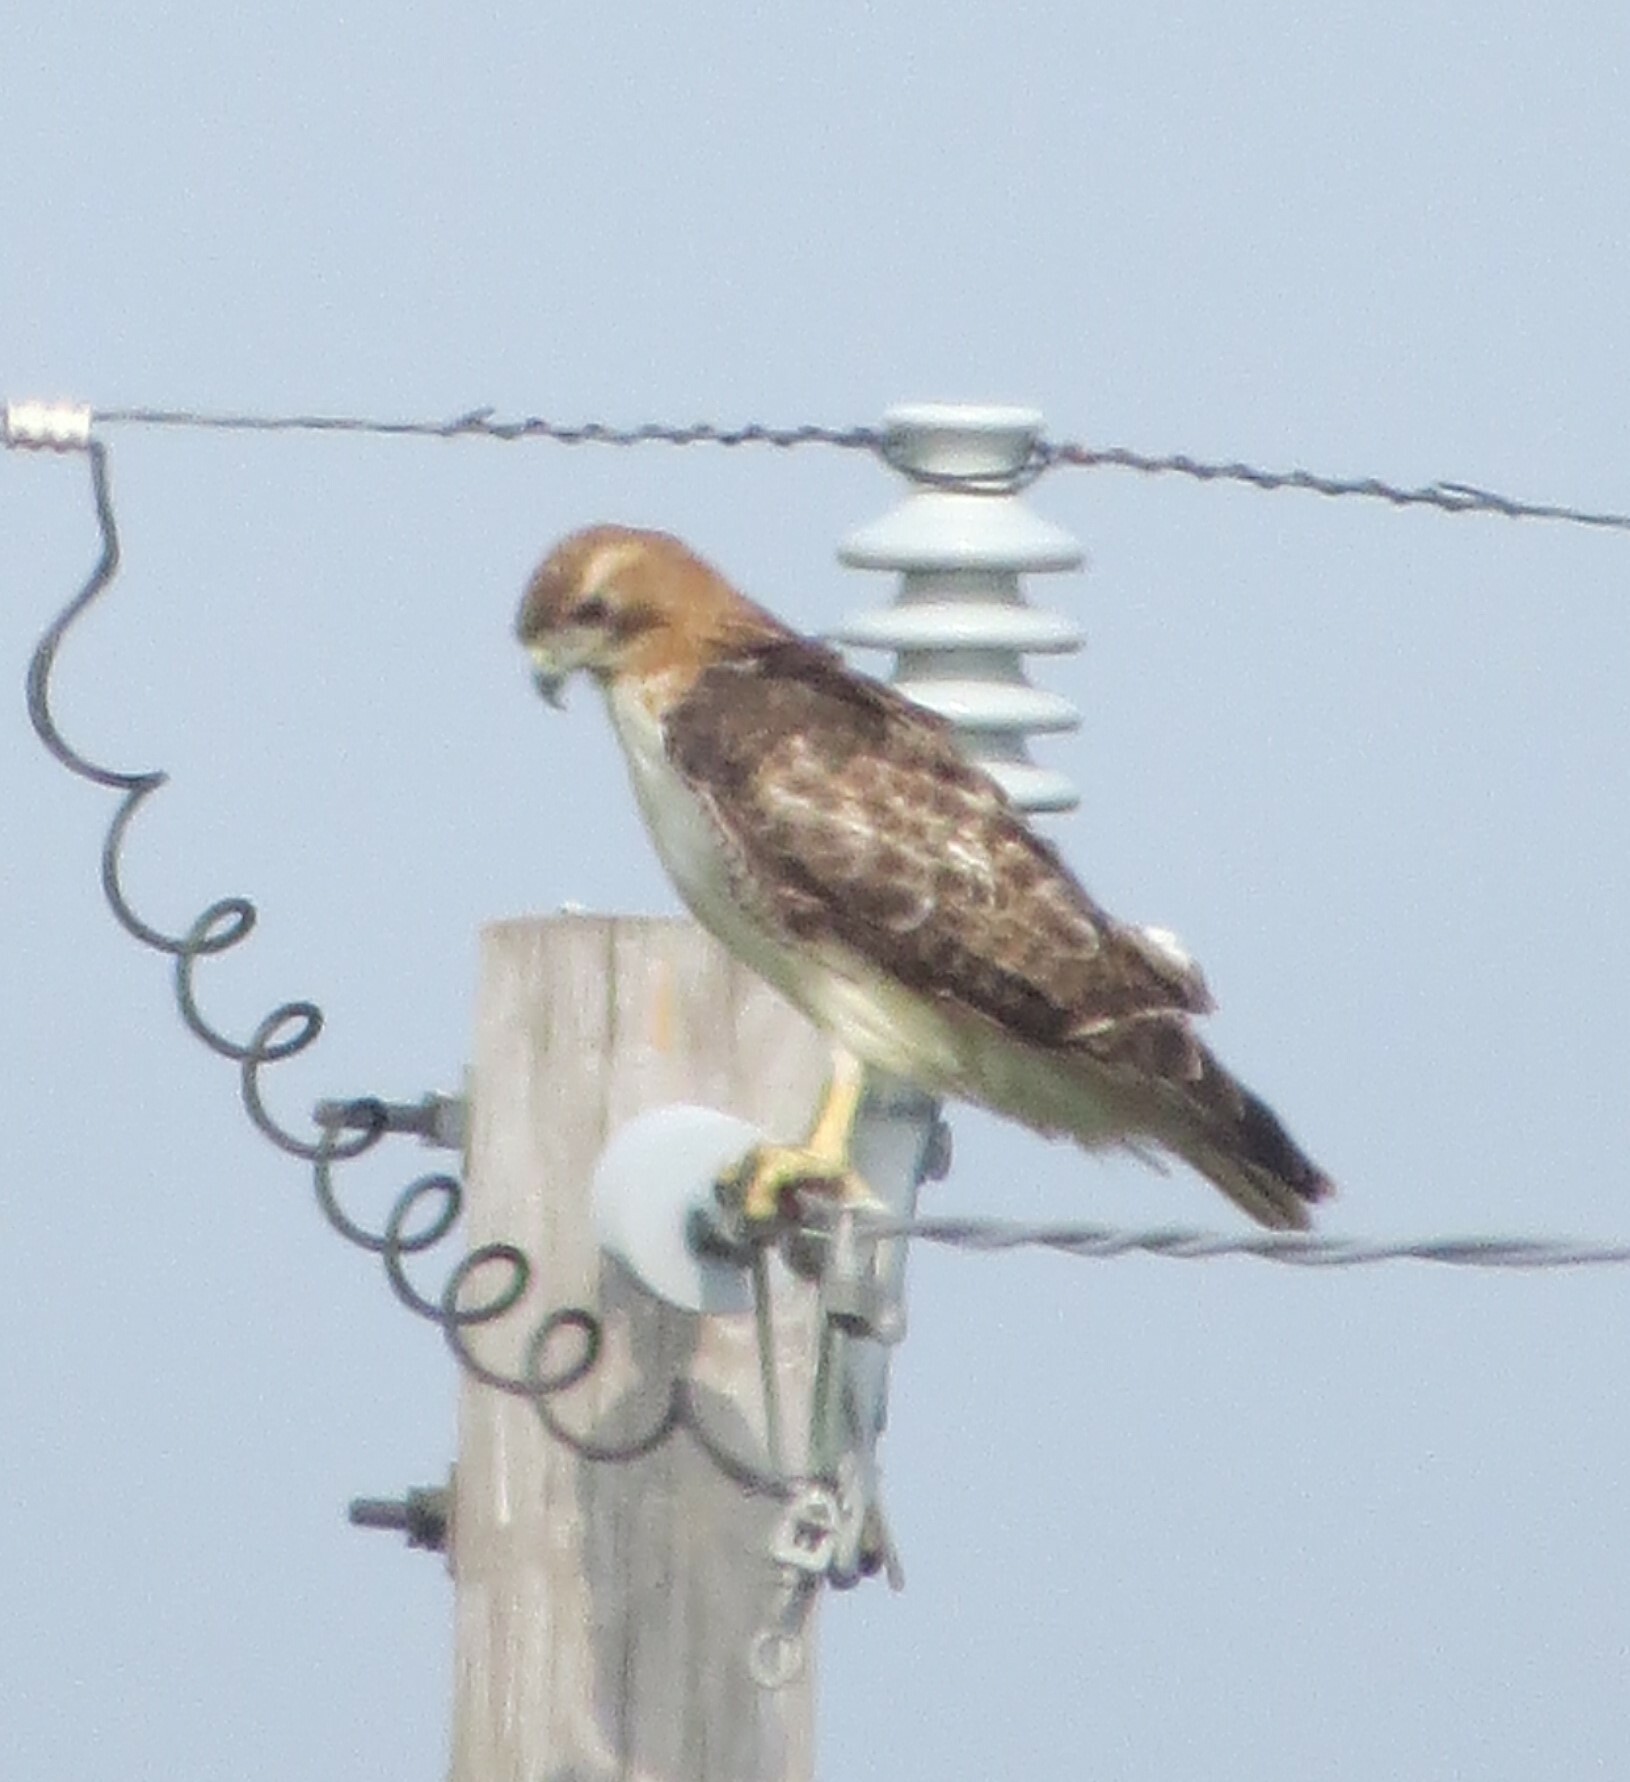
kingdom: Animalia
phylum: Chordata
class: Aves
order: Accipitriformes
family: Accipitridae
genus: Buteo
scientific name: Buteo jamaicensis
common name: Red-tailed hawk
